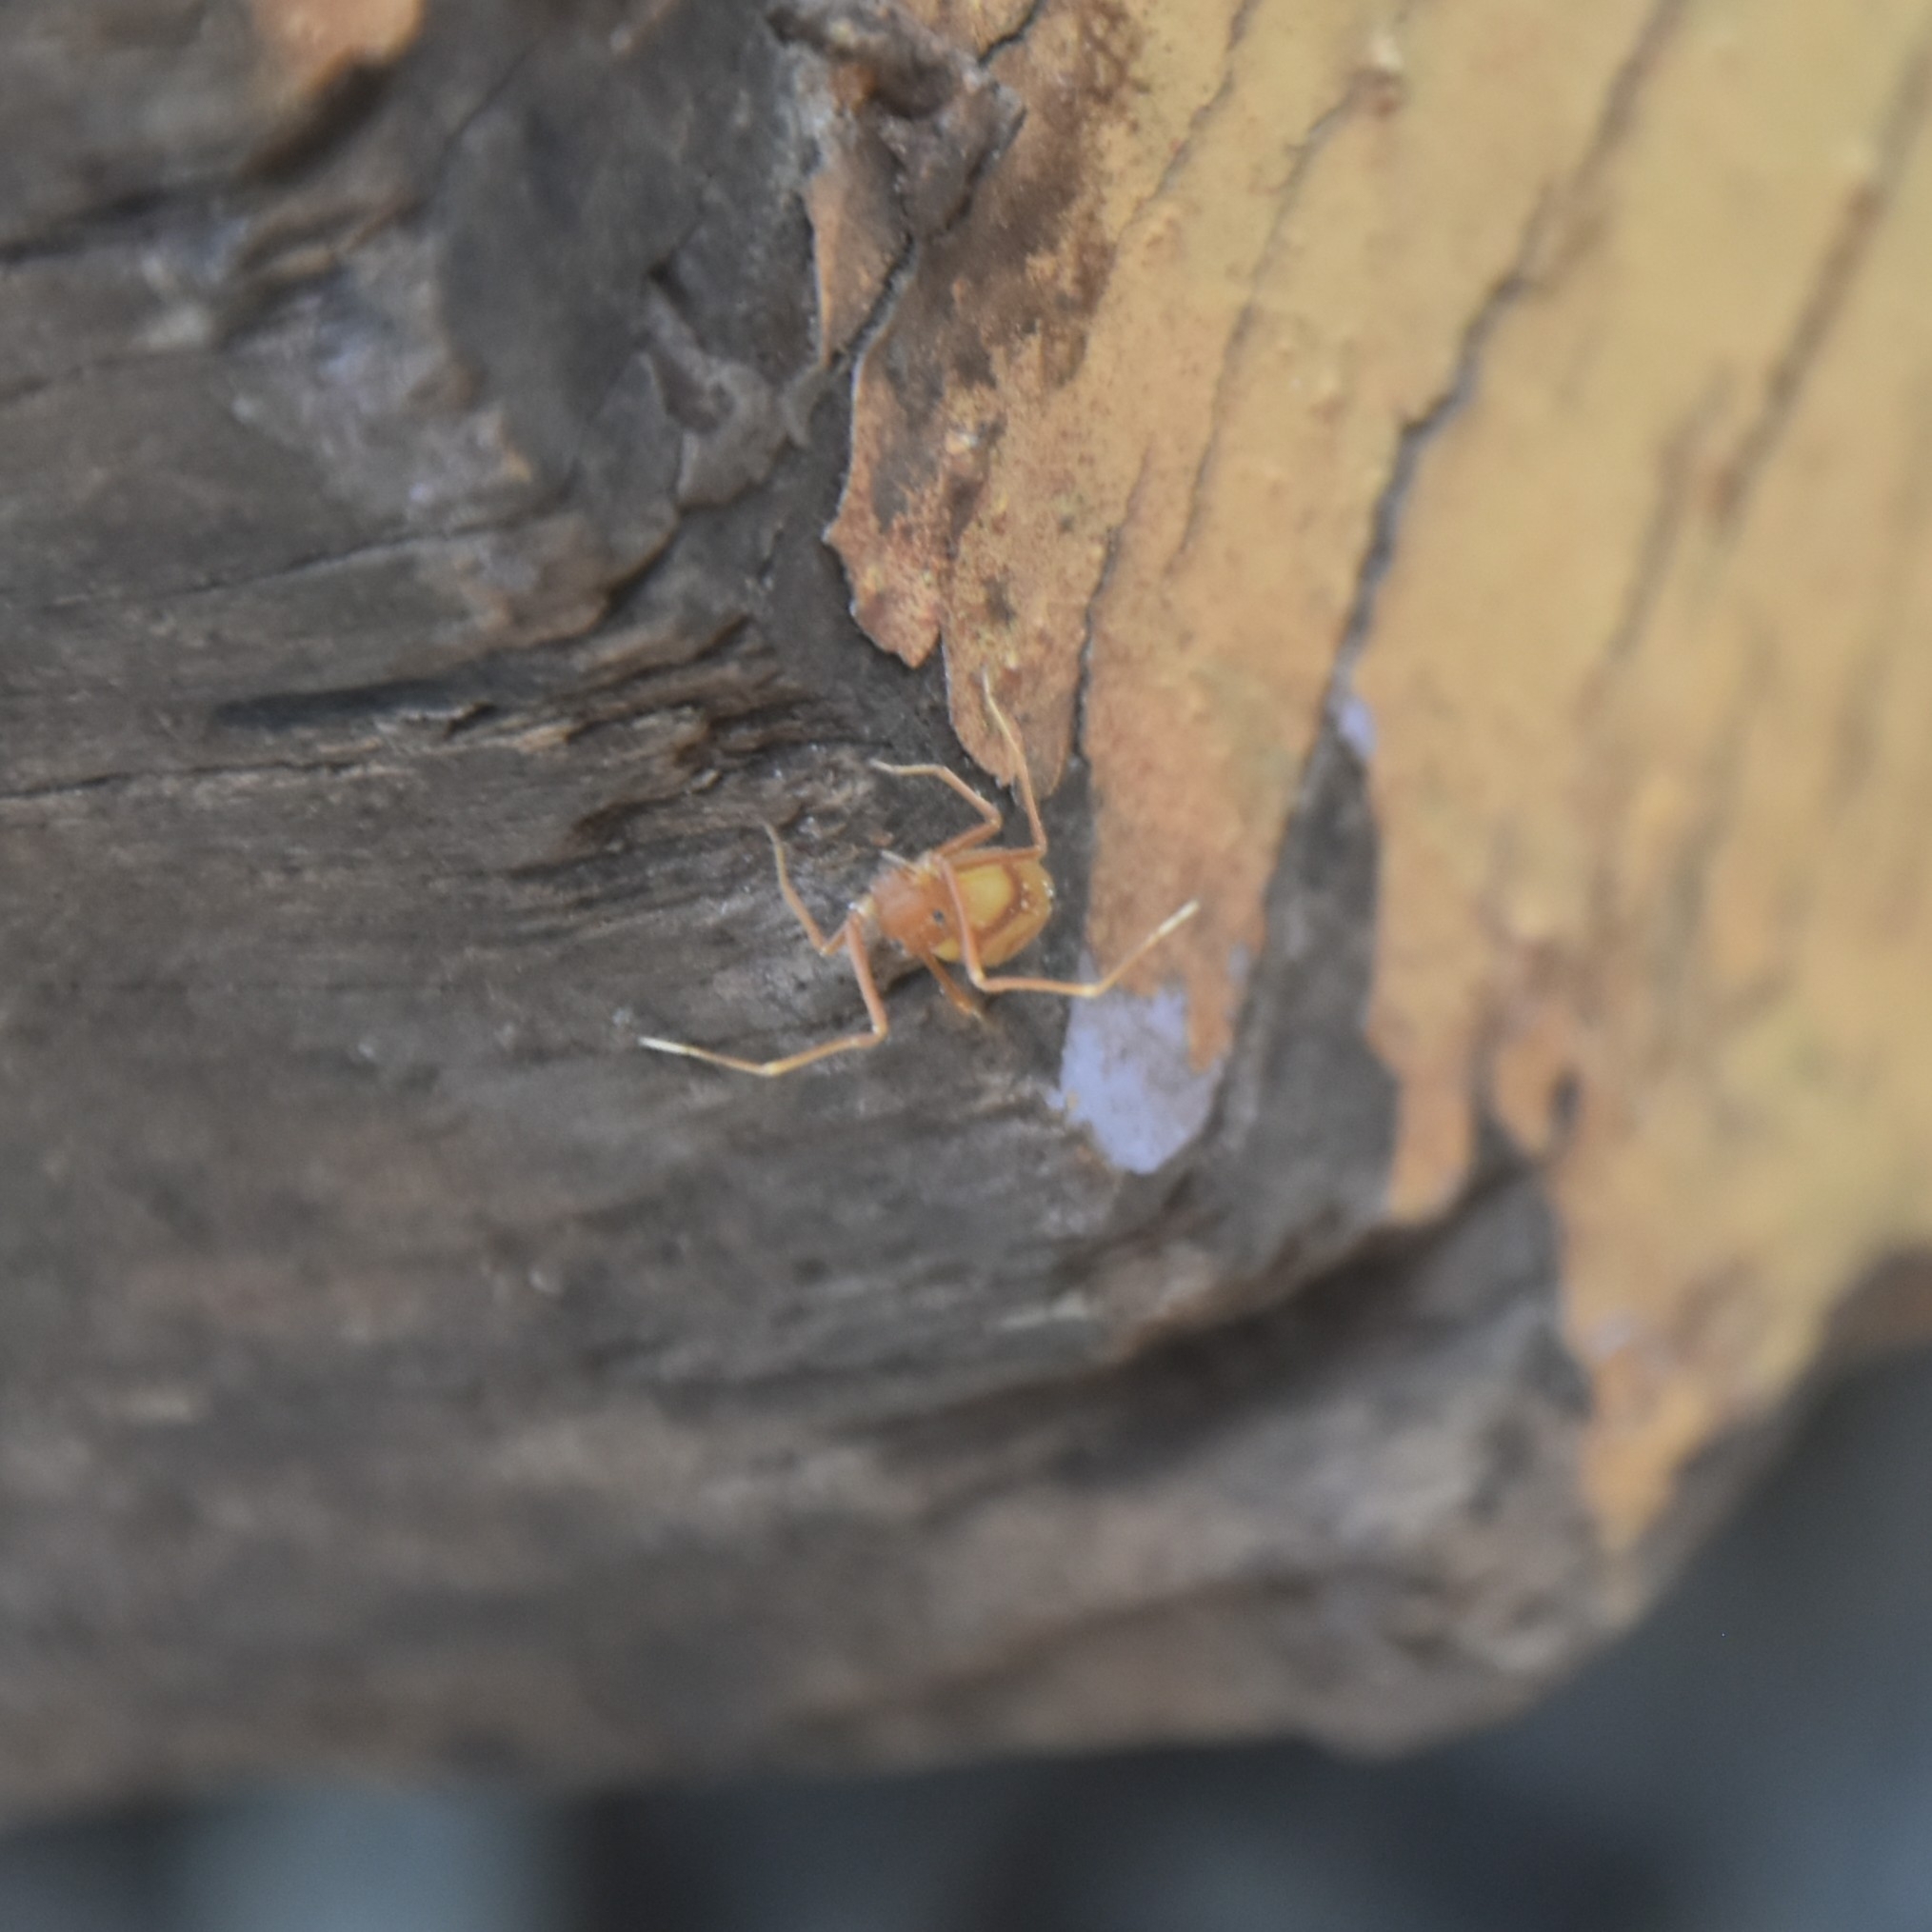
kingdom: Animalia
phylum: Arthropoda
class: Arachnida
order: Araneae
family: Thomisidae
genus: Amyciaea
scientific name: Amyciaea forticeps
